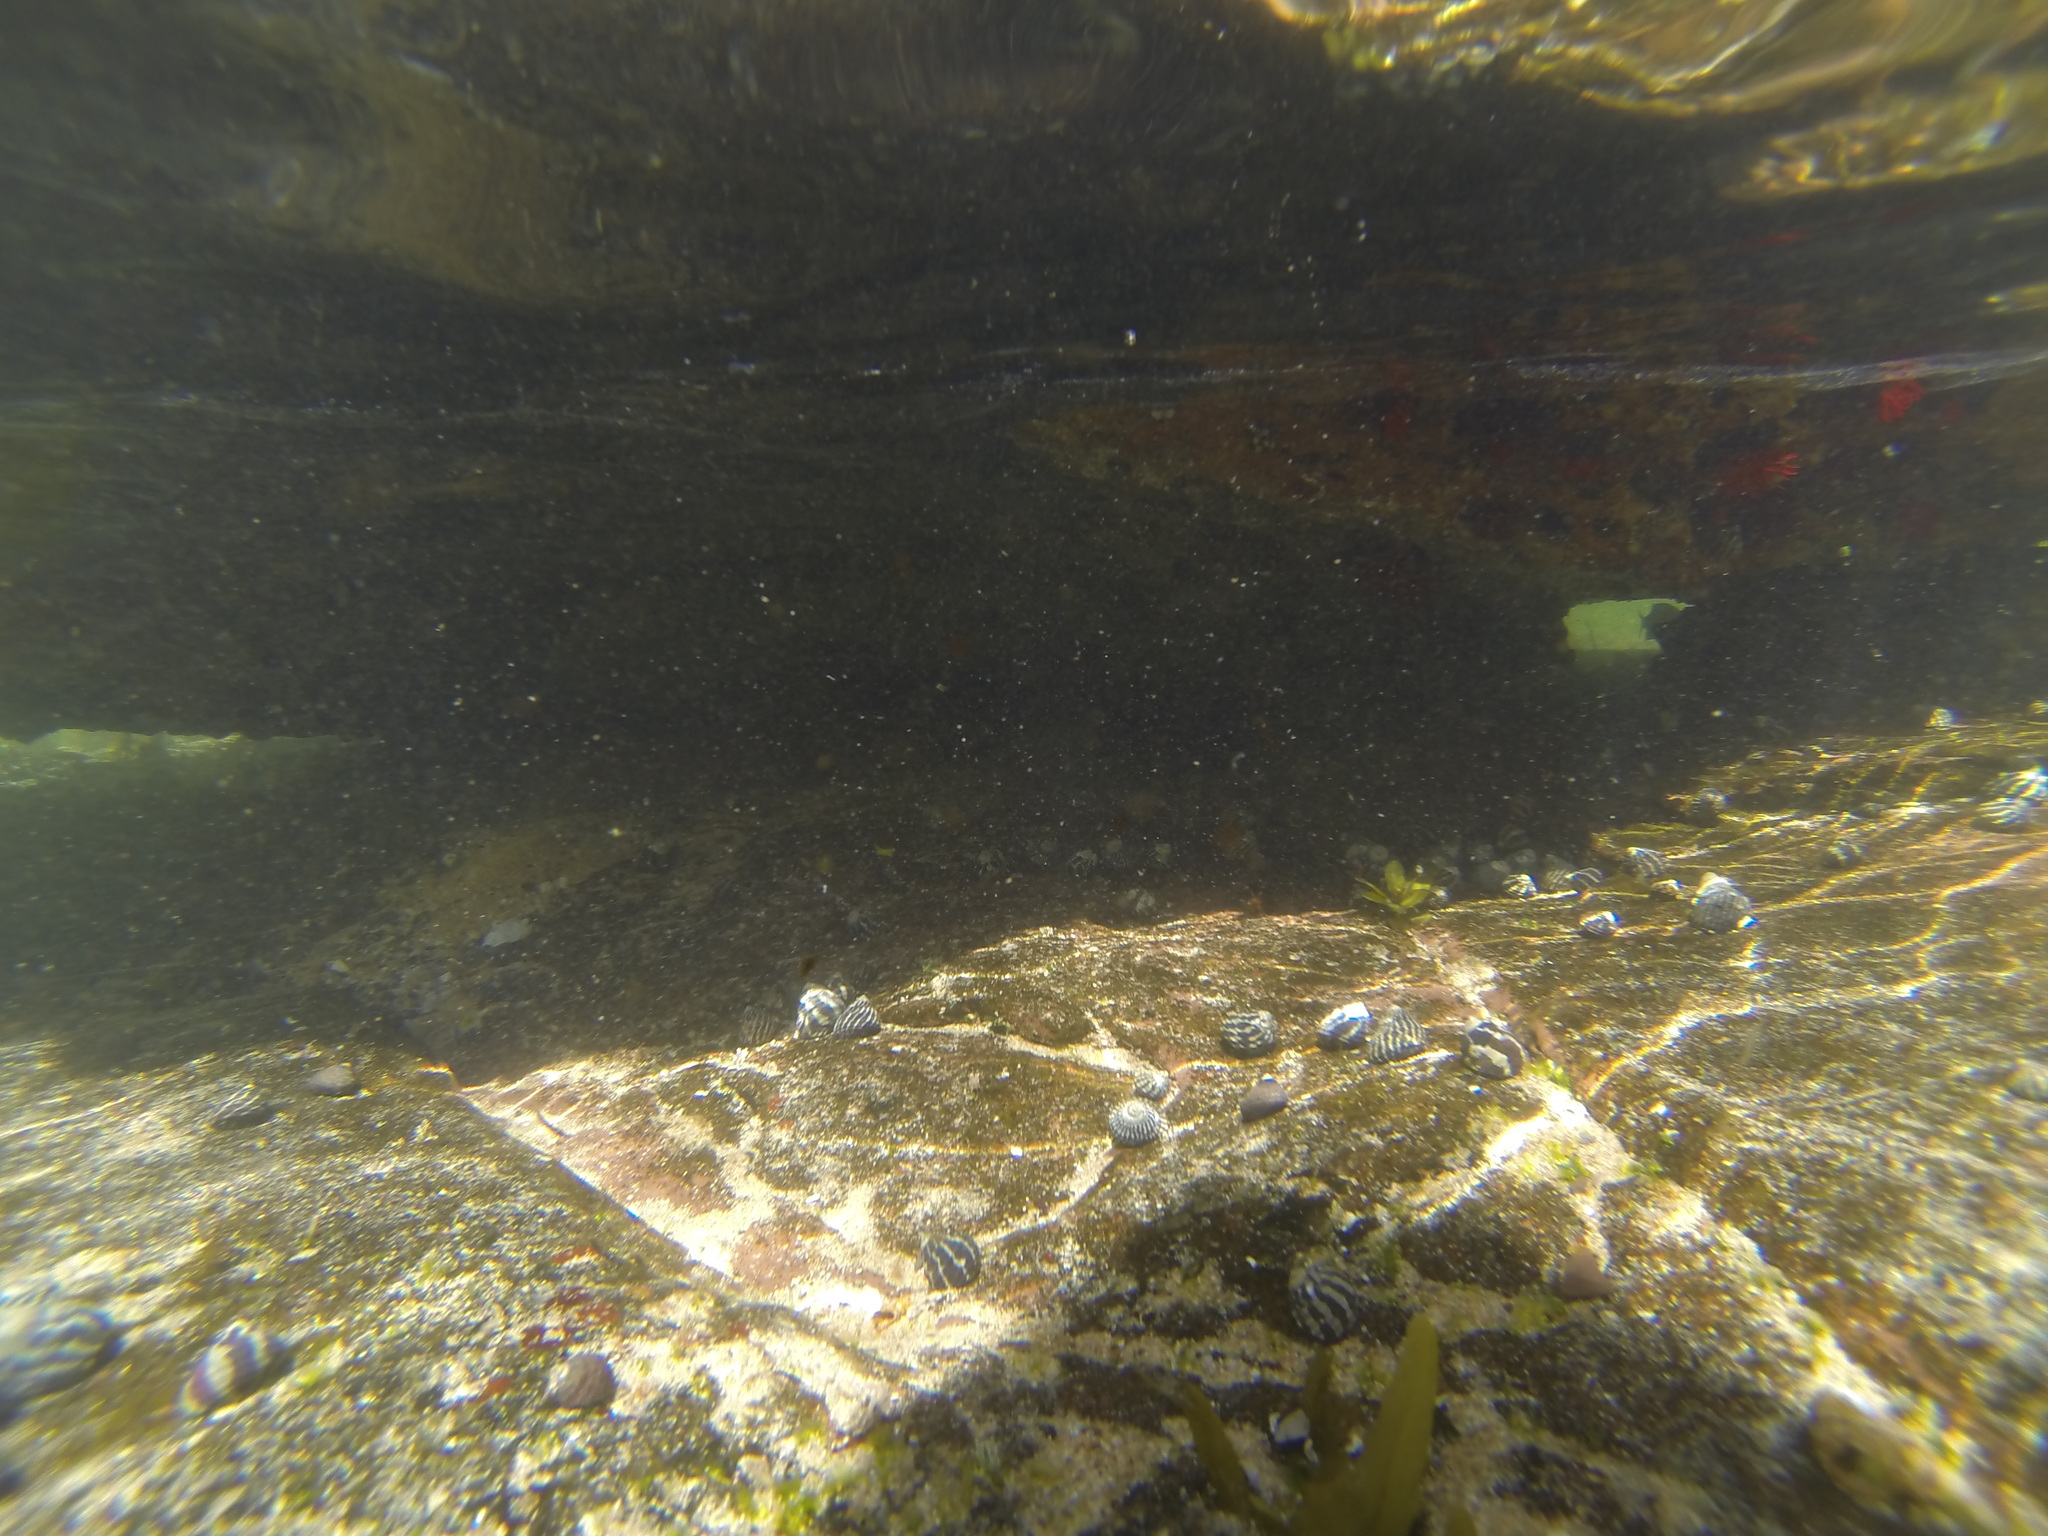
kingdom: Animalia
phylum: Mollusca
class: Gastropoda
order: Trochida
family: Trochidae
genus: Austrocochlea
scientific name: Austrocochlea porcata
